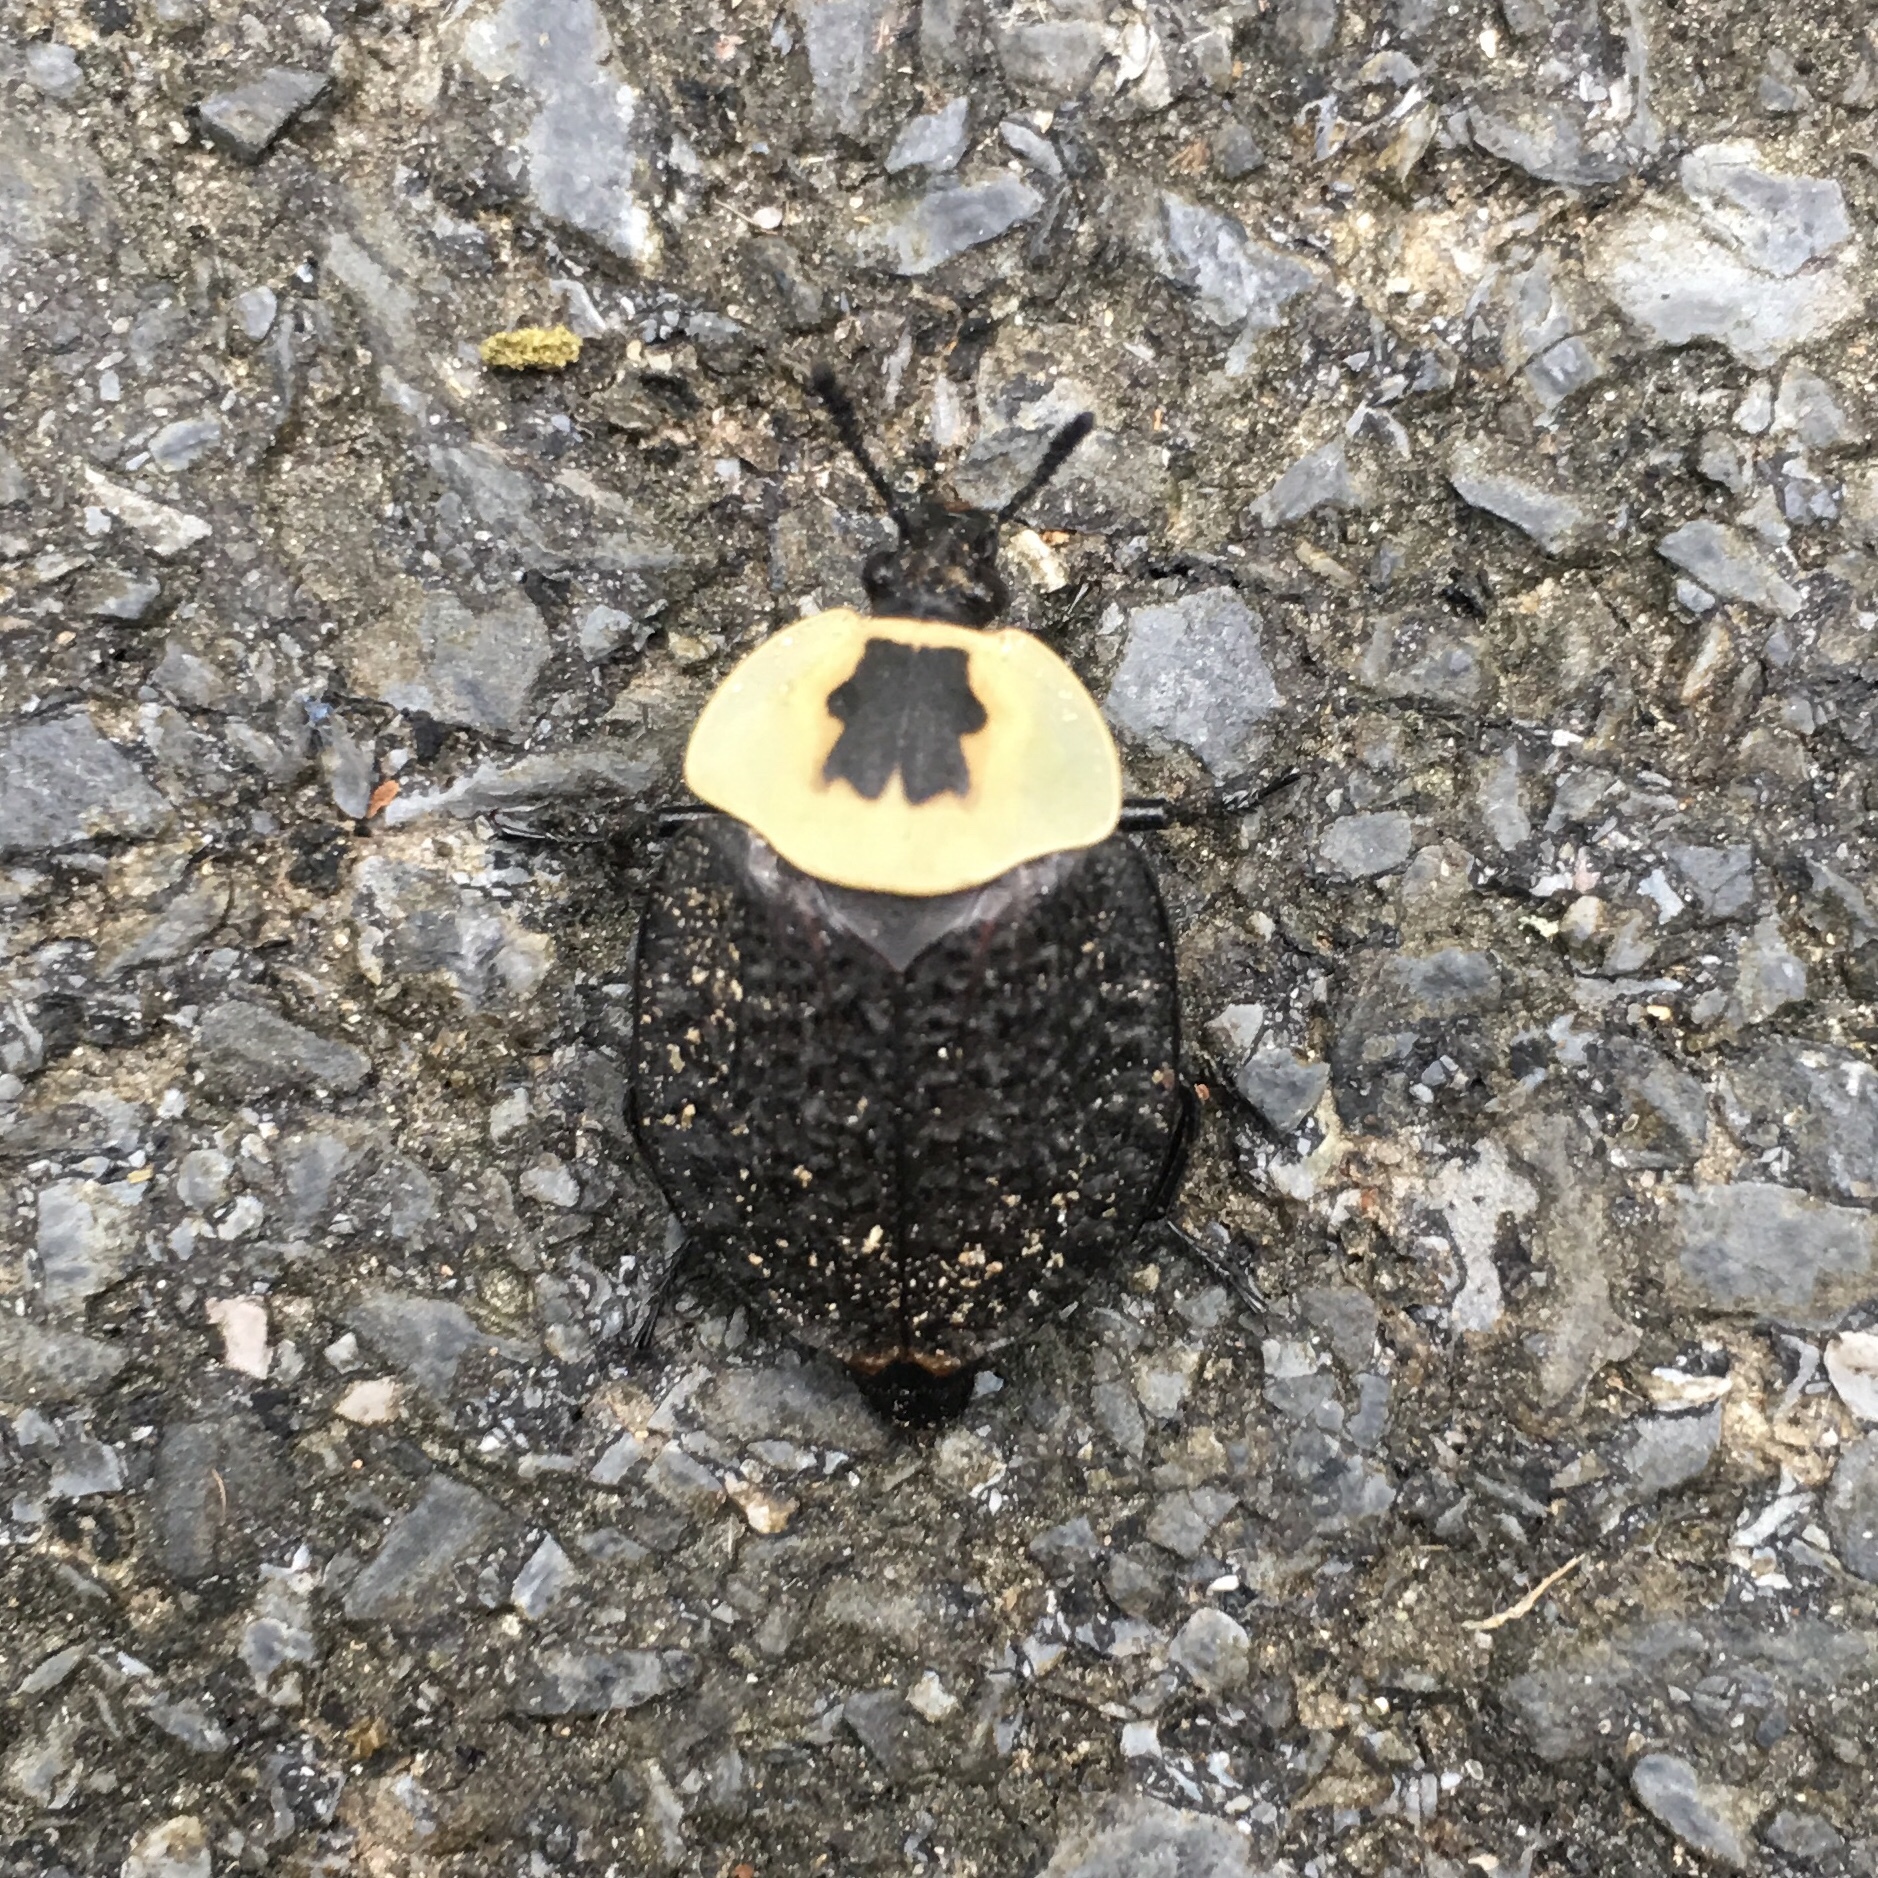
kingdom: Animalia
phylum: Arthropoda
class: Insecta
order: Coleoptera
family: Staphylinidae
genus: Necrophila
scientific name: Necrophila americana
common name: American carrion beetle
